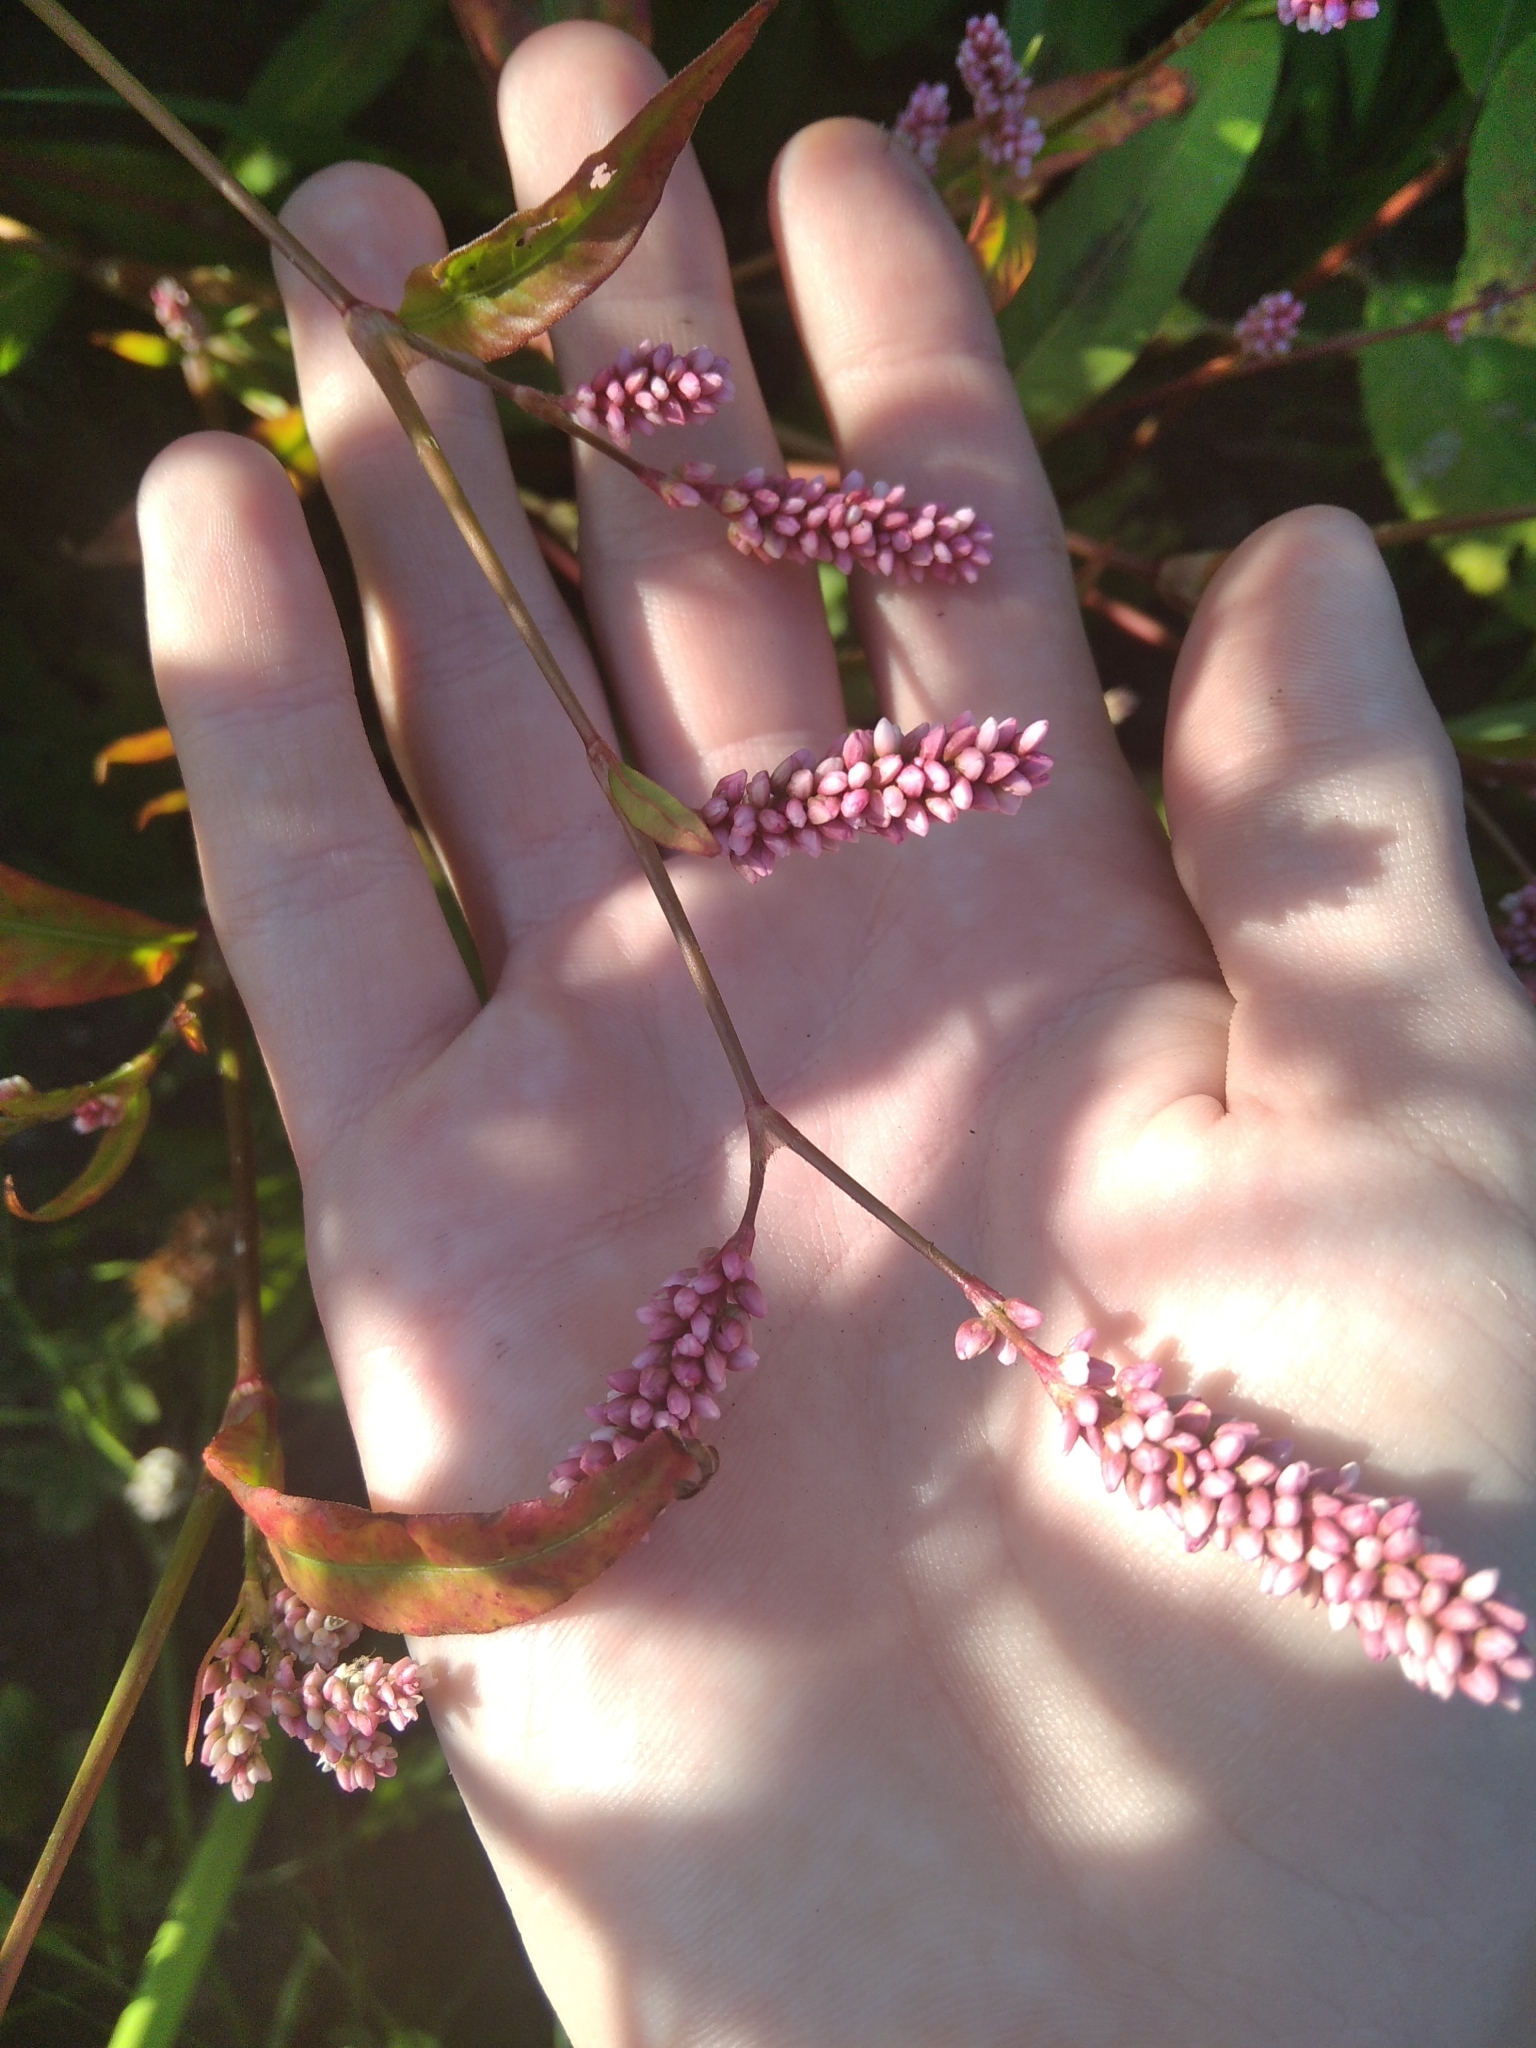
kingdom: Plantae
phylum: Tracheophyta
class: Magnoliopsida
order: Caryophyllales
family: Polygonaceae
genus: Persicaria
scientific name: Persicaria maculosa
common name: Redshank
